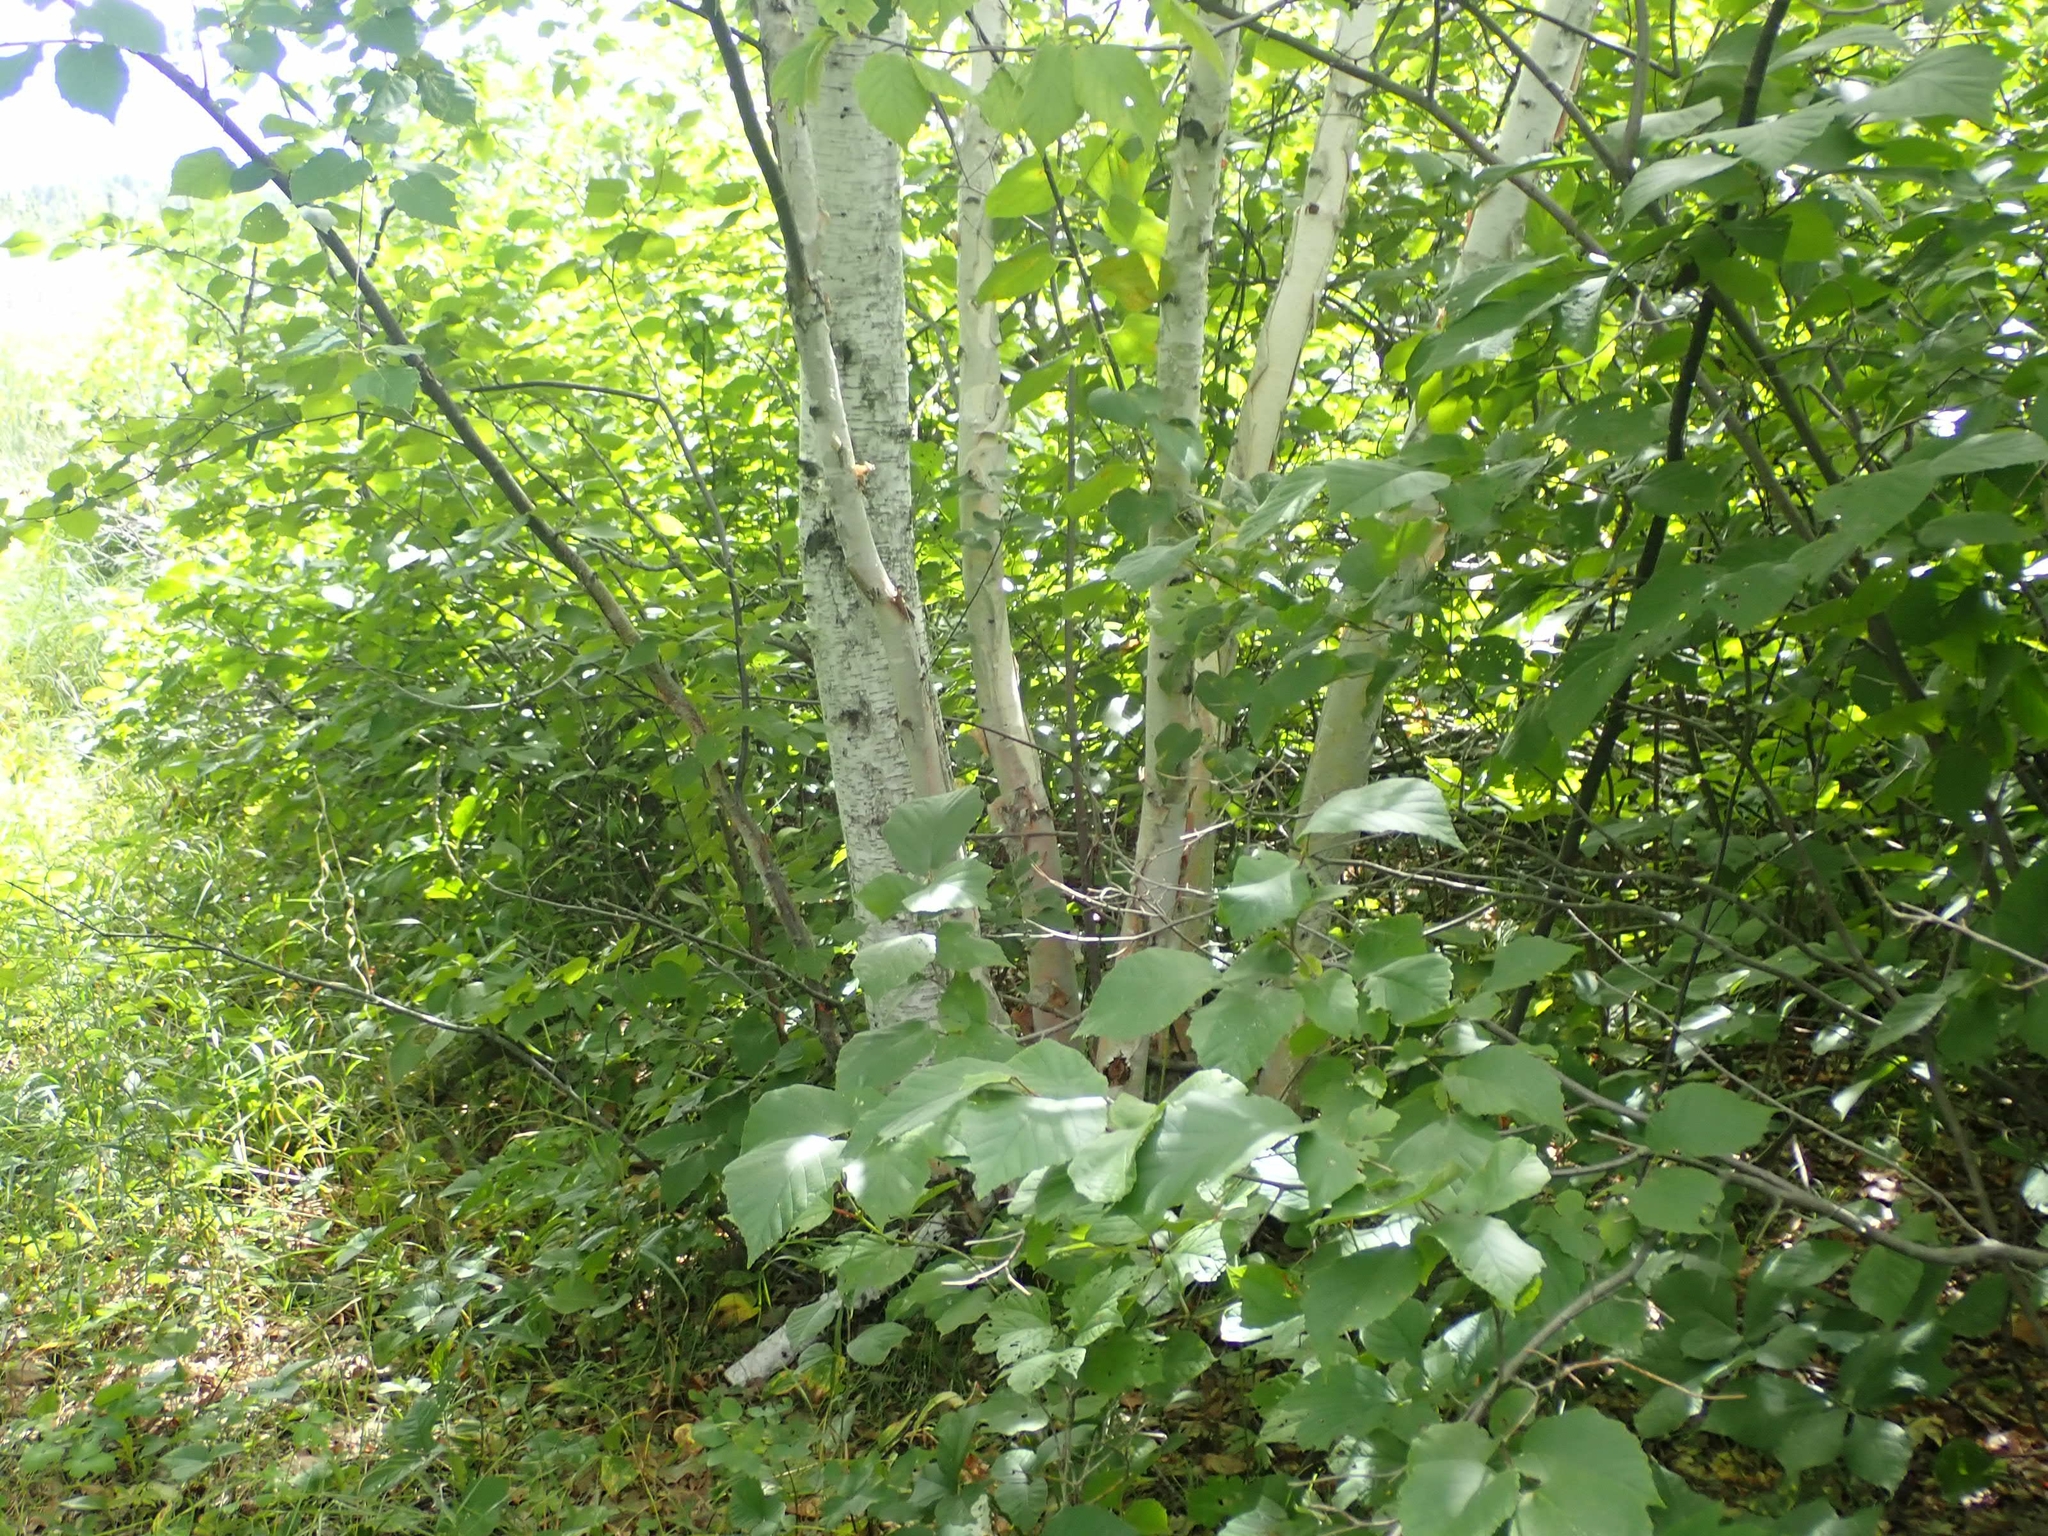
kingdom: Plantae
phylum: Tracheophyta
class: Magnoliopsida
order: Fagales
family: Betulaceae
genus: Betula
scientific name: Betula papyrifera
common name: Paper birch
